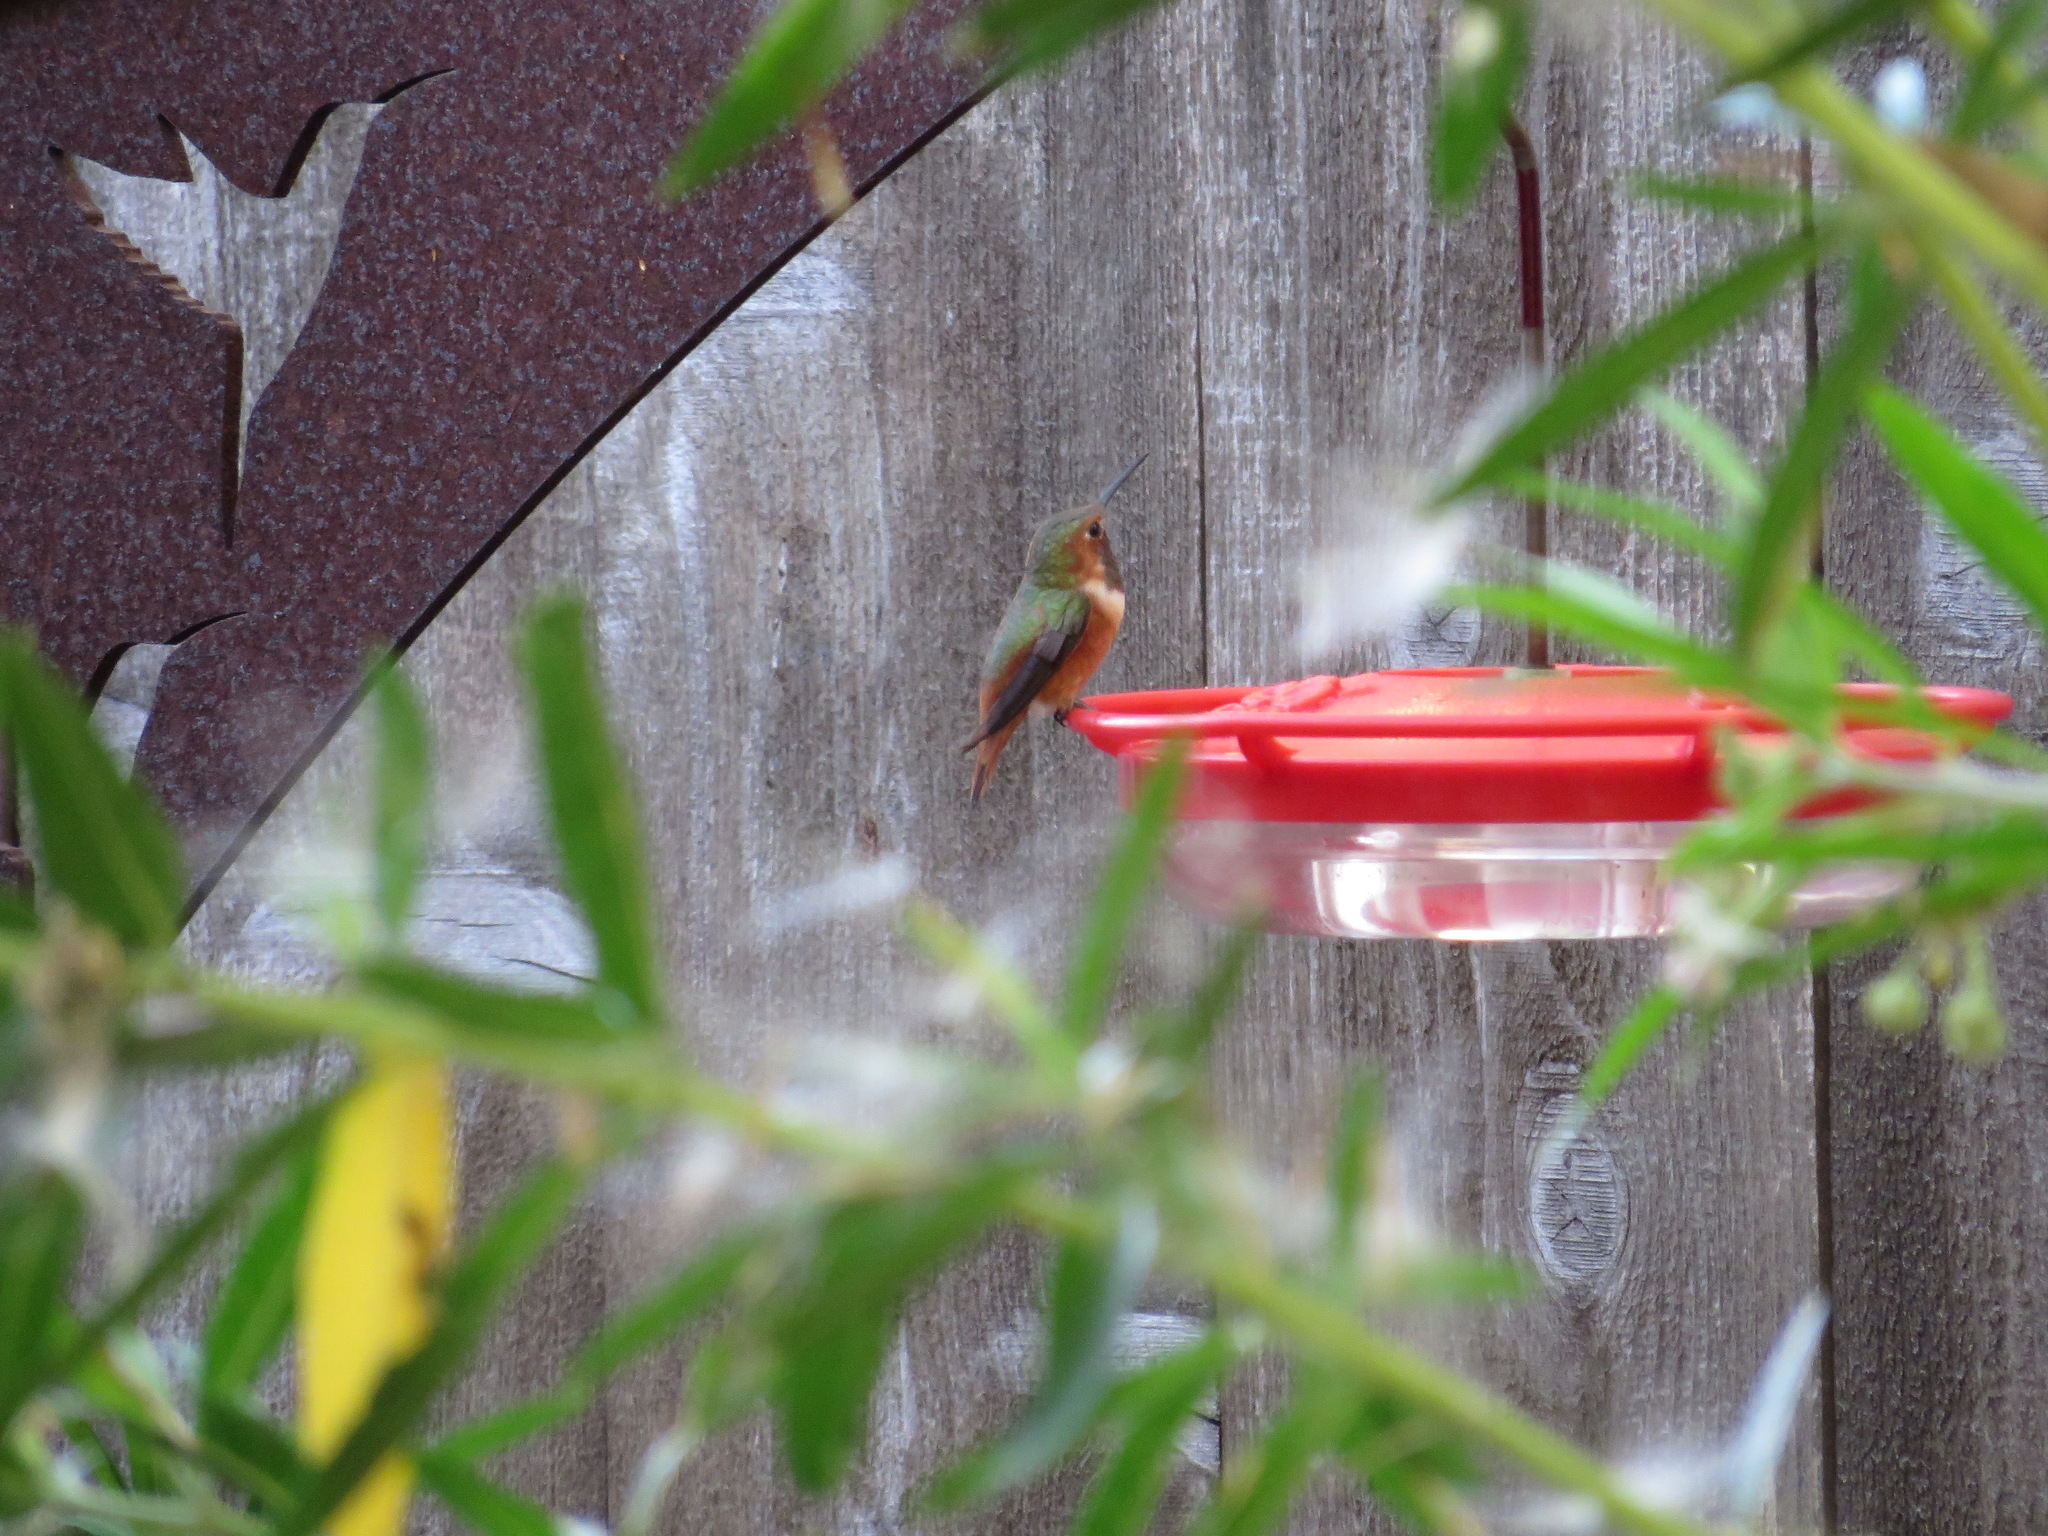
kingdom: Animalia
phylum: Chordata
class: Aves
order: Apodiformes
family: Trochilidae
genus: Selasphorus
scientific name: Selasphorus sasin
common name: Allen's hummingbird
